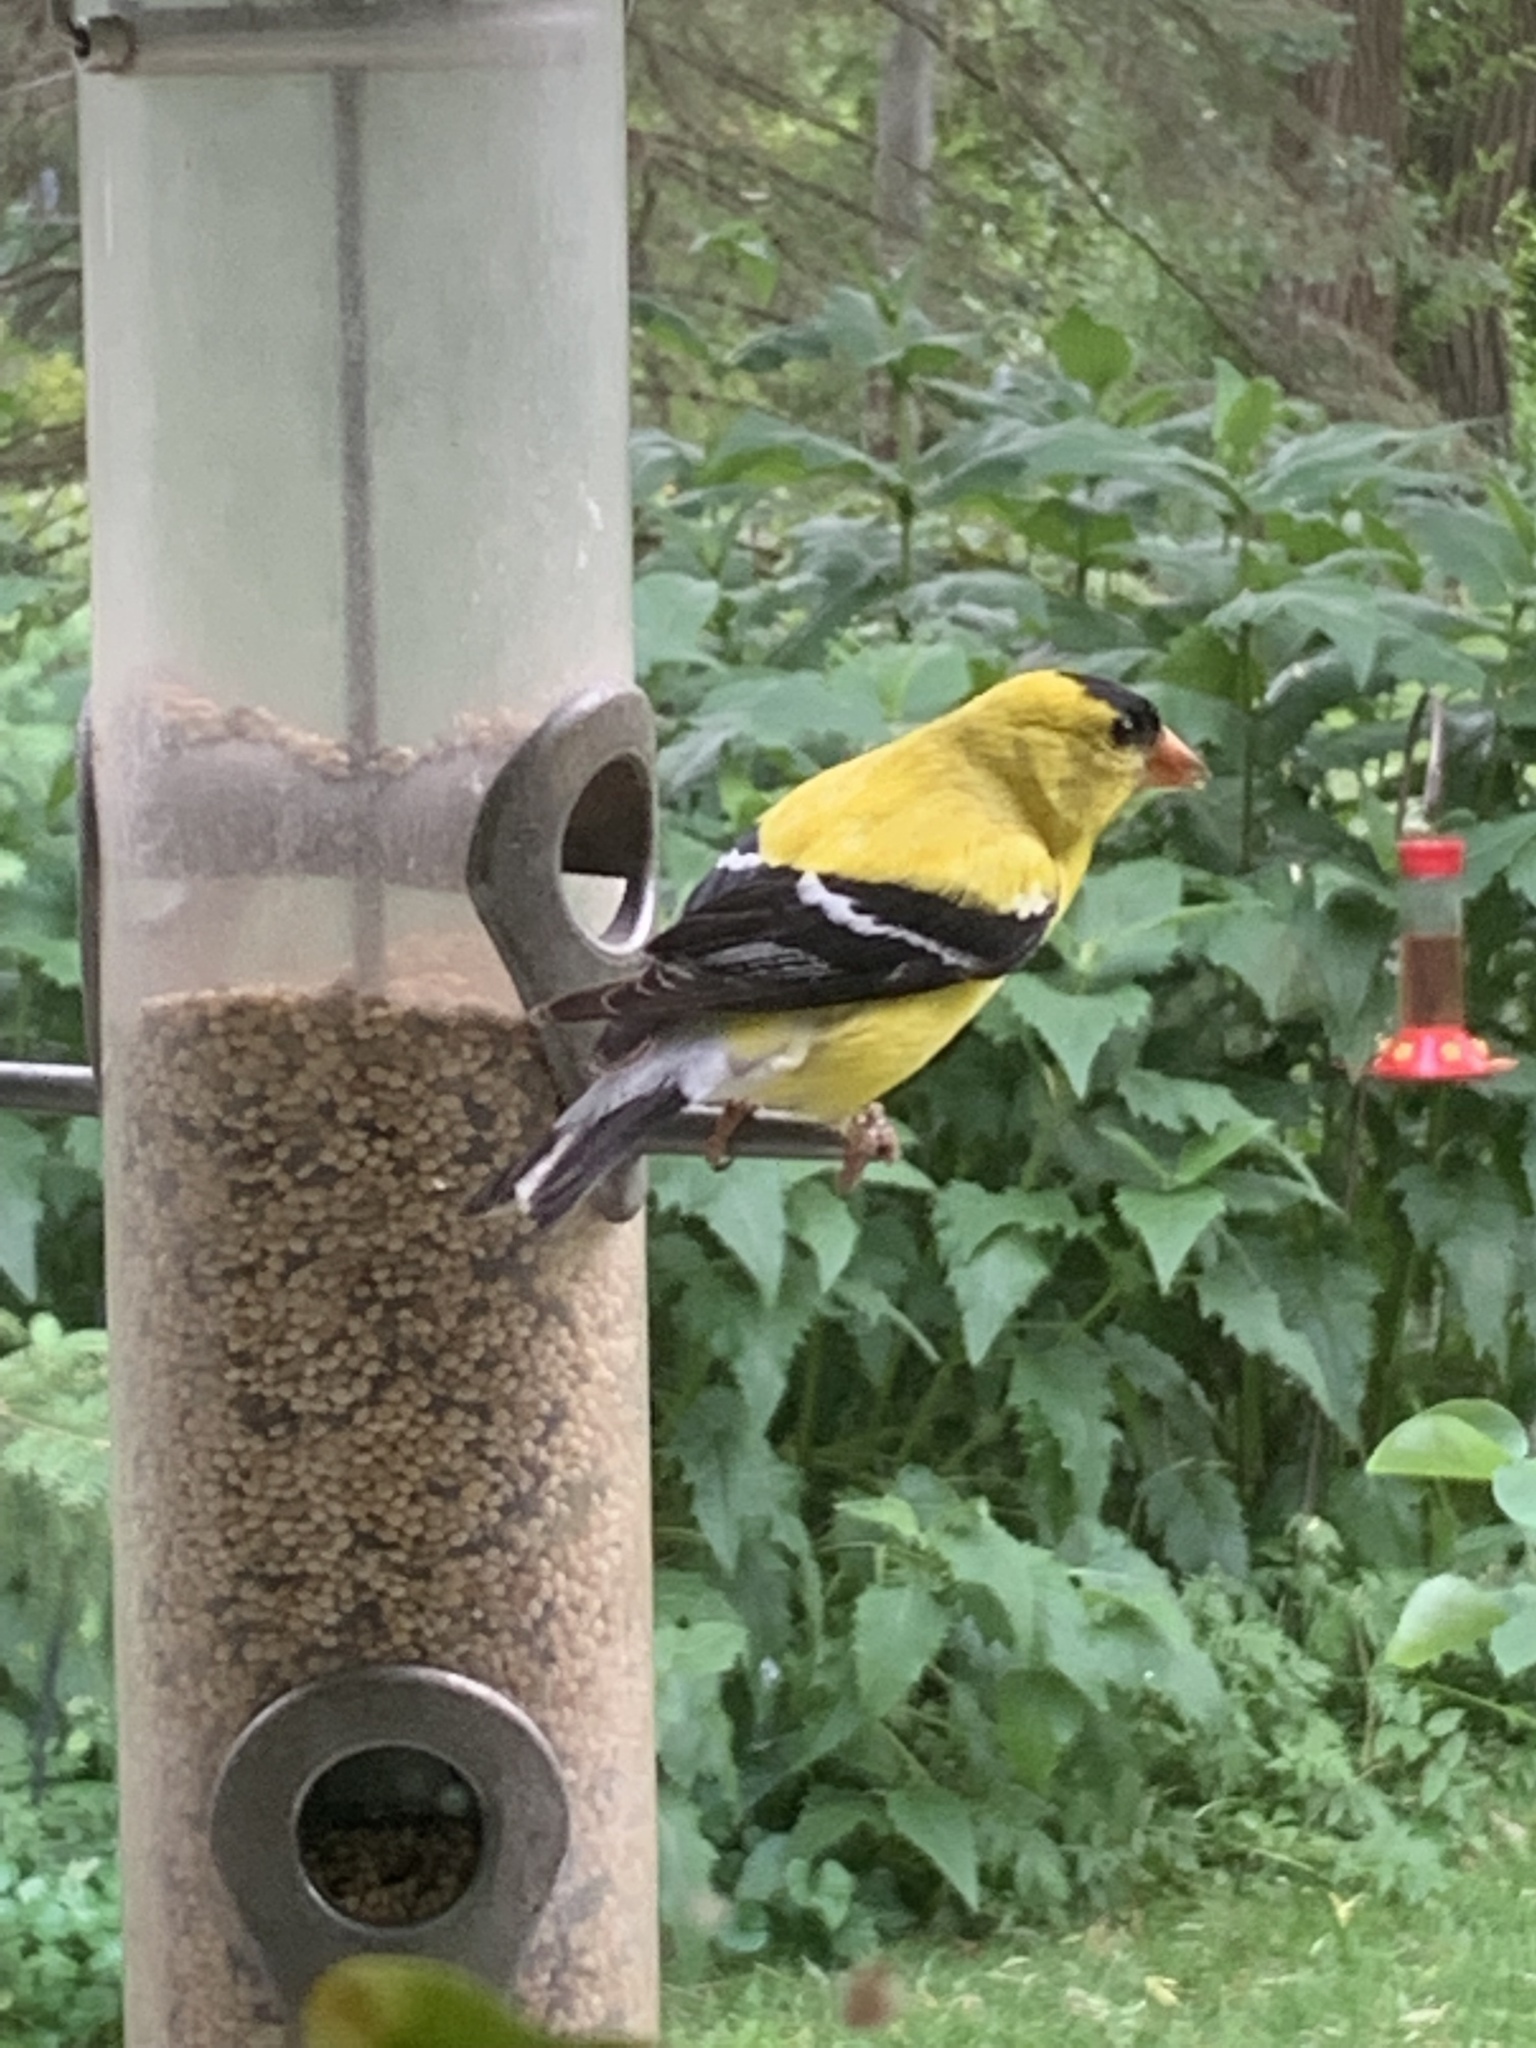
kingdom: Animalia
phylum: Chordata
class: Aves
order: Passeriformes
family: Fringillidae
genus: Spinus
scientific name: Spinus tristis
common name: American goldfinch
